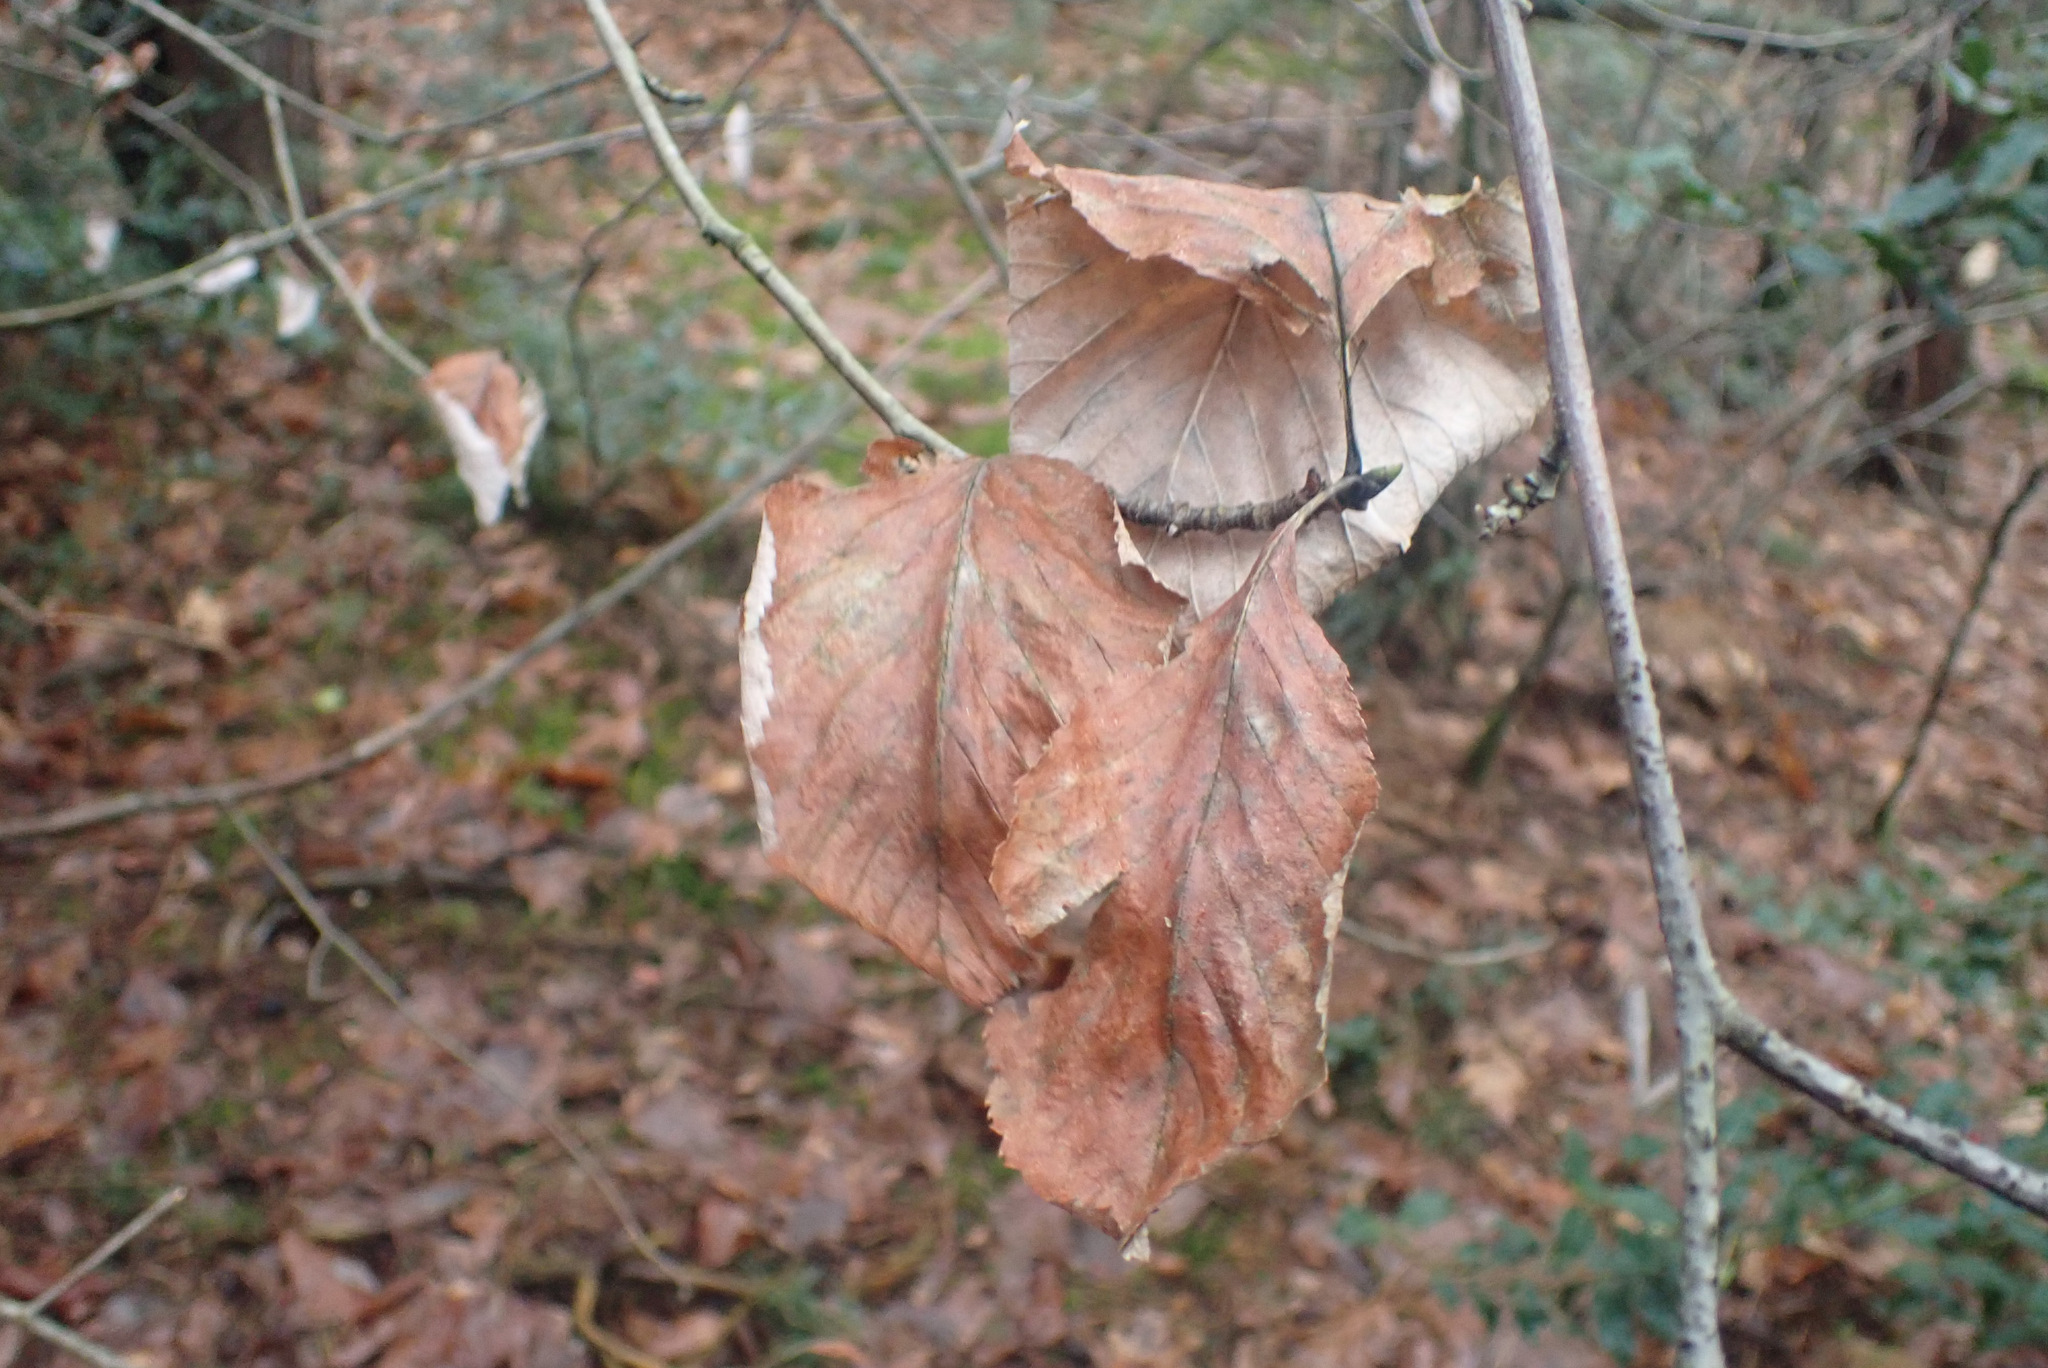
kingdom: Plantae
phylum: Tracheophyta
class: Magnoliopsida
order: Rosales
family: Rosaceae
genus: Aria
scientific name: Aria edulis
